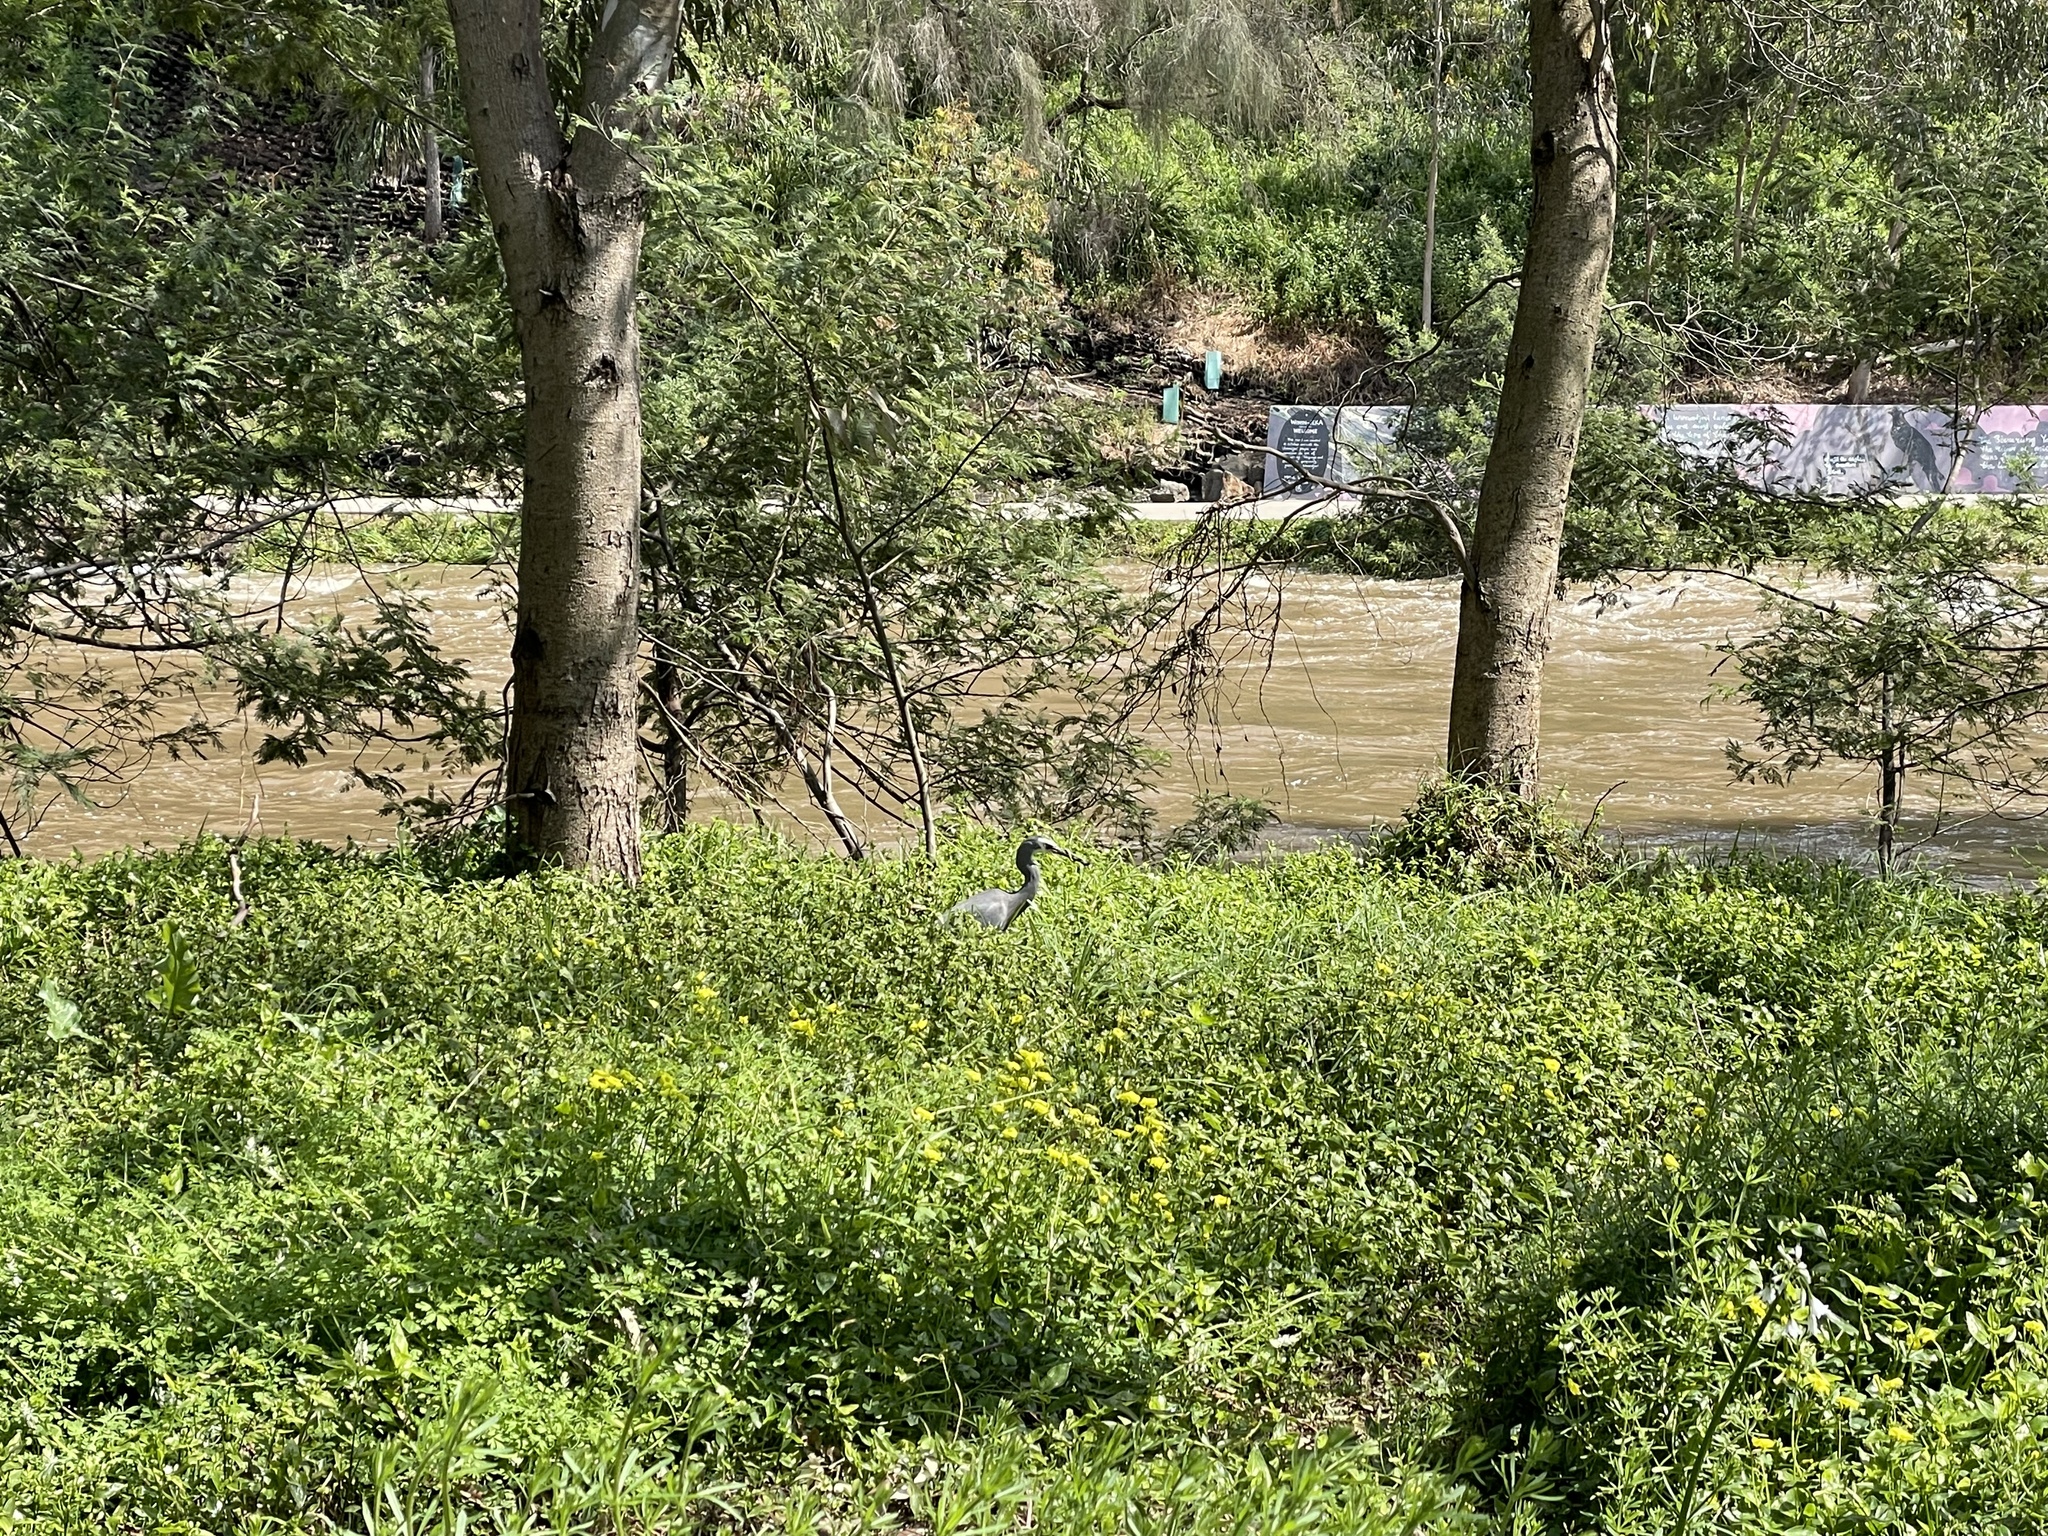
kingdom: Animalia
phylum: Chordata
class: Aves
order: Pelecaniformes
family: Ardeidae
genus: Egretta
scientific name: Egretta novaehollandiae
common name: White-faced heron
